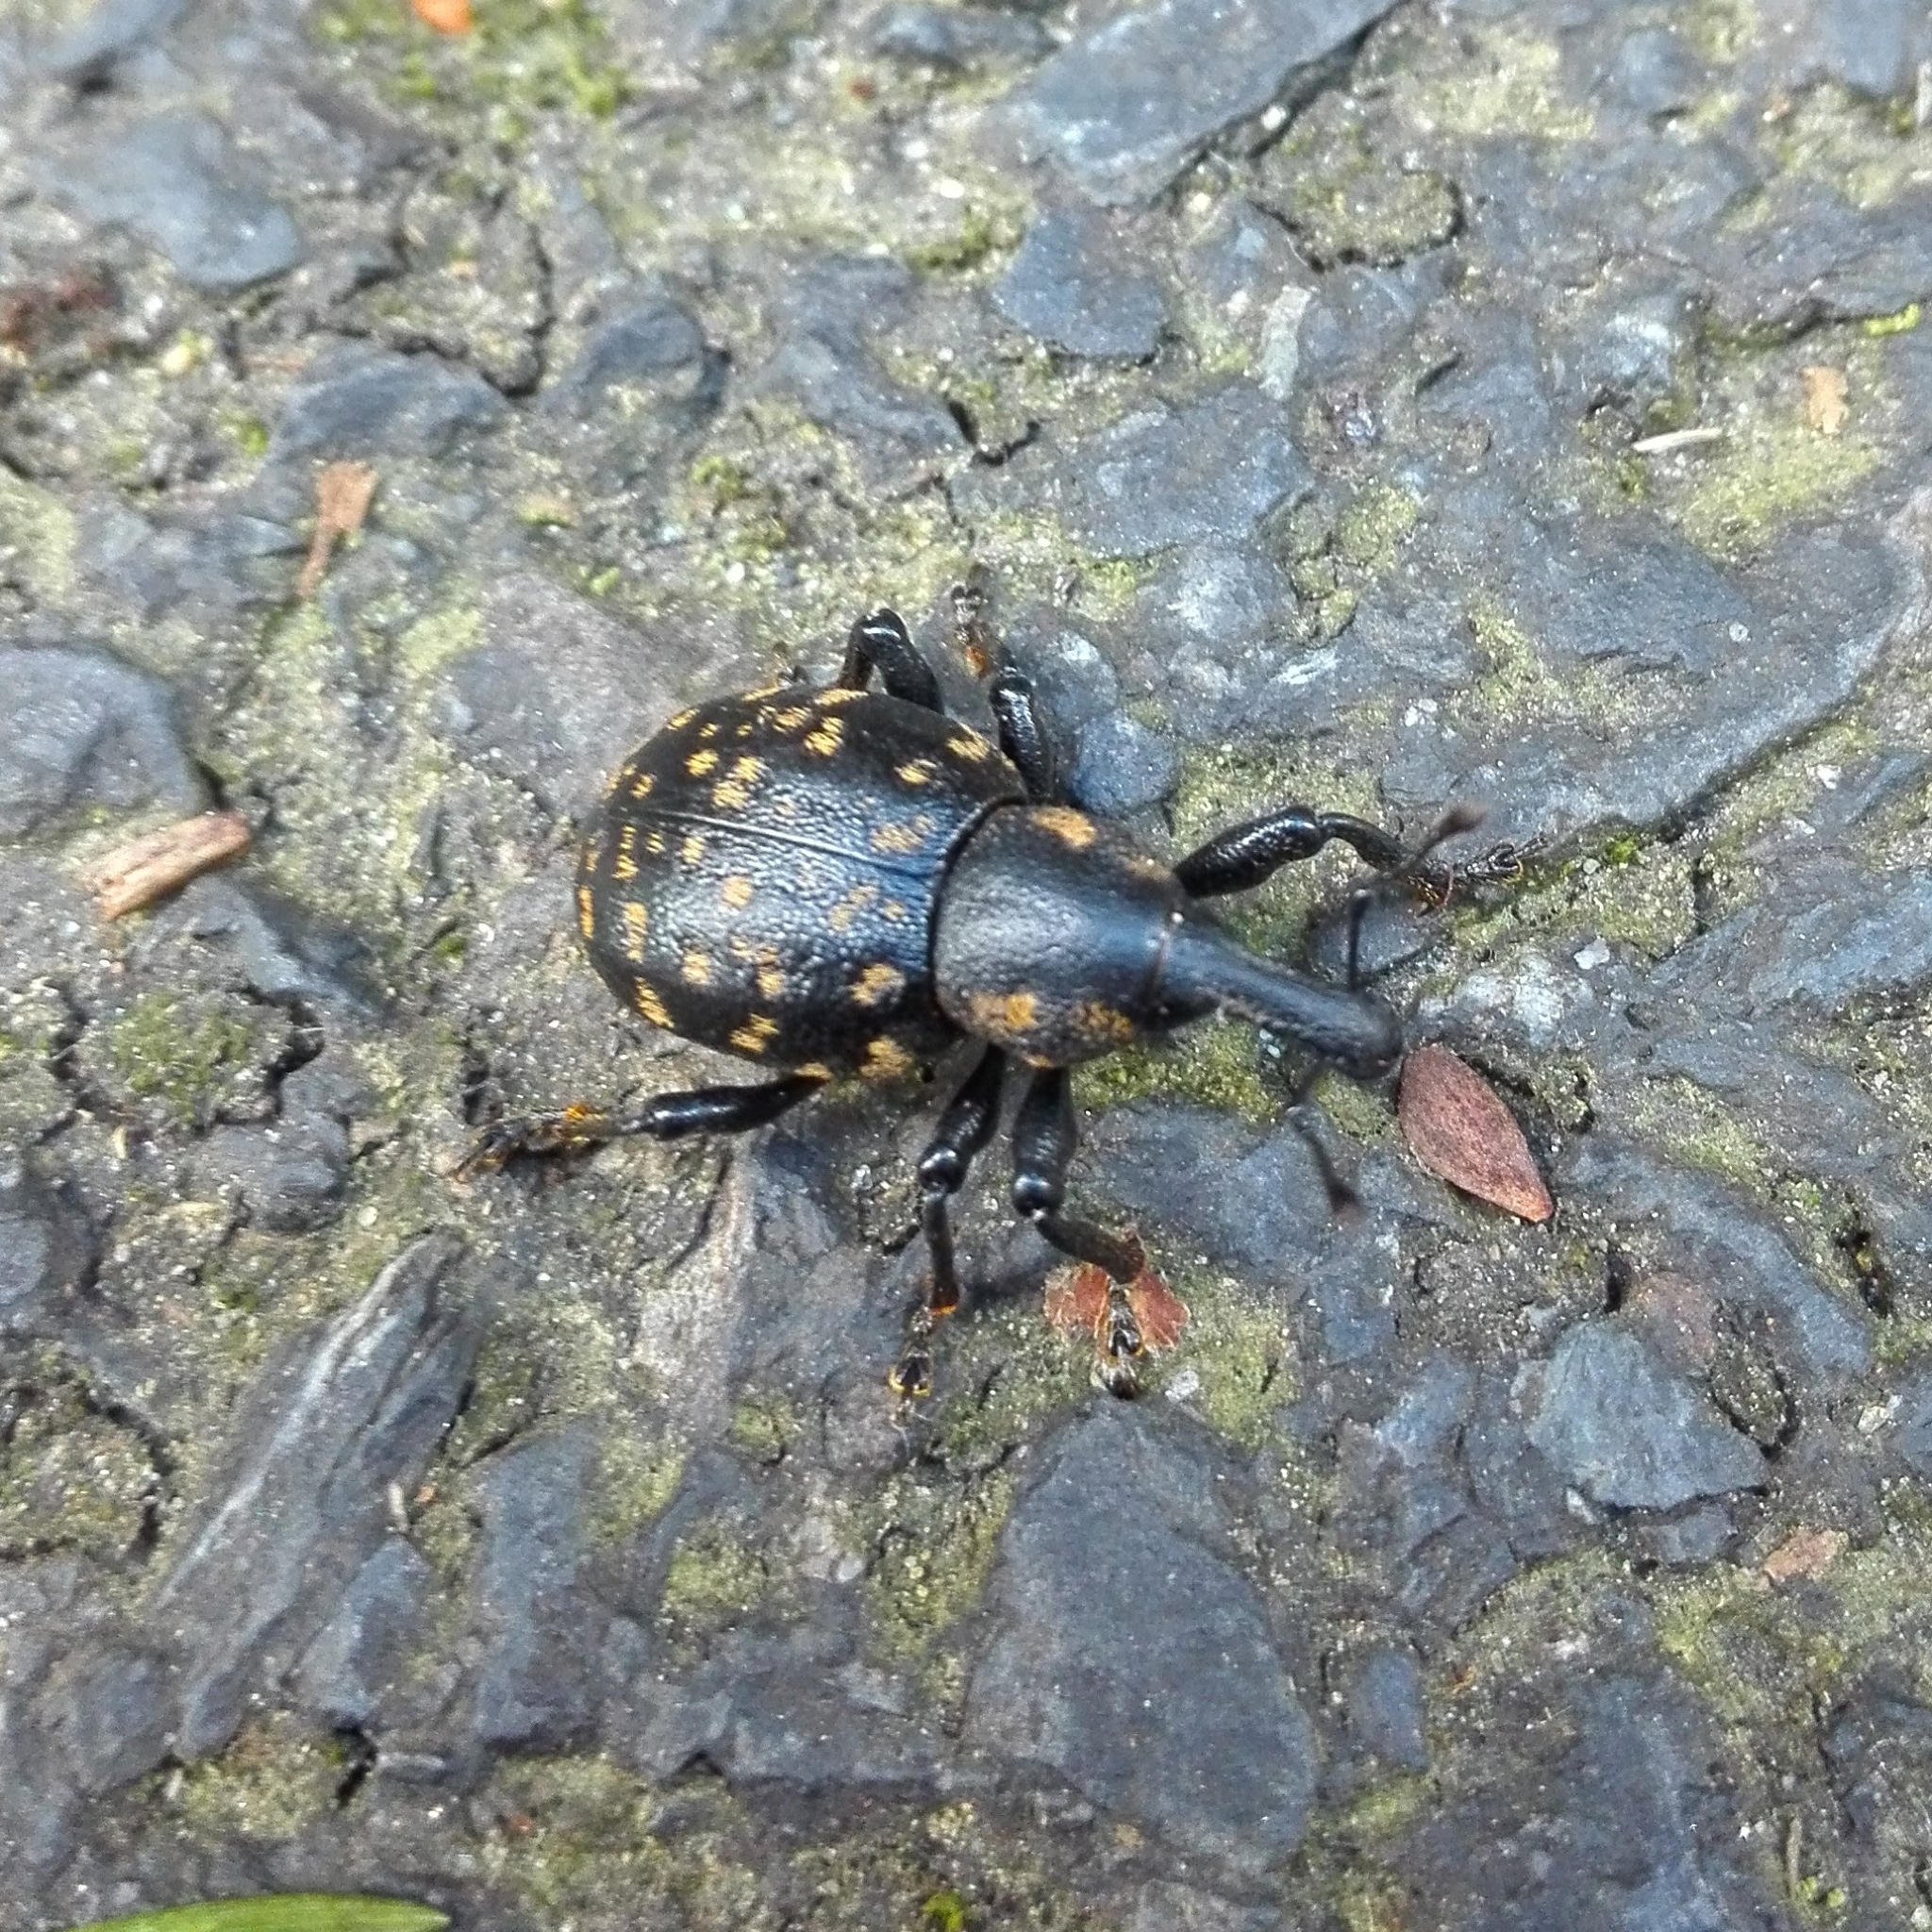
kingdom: Animalia
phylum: Arthropoda
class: Insecta
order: Coleoptera
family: Curculionidae
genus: Liparus
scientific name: Liparus germanus
